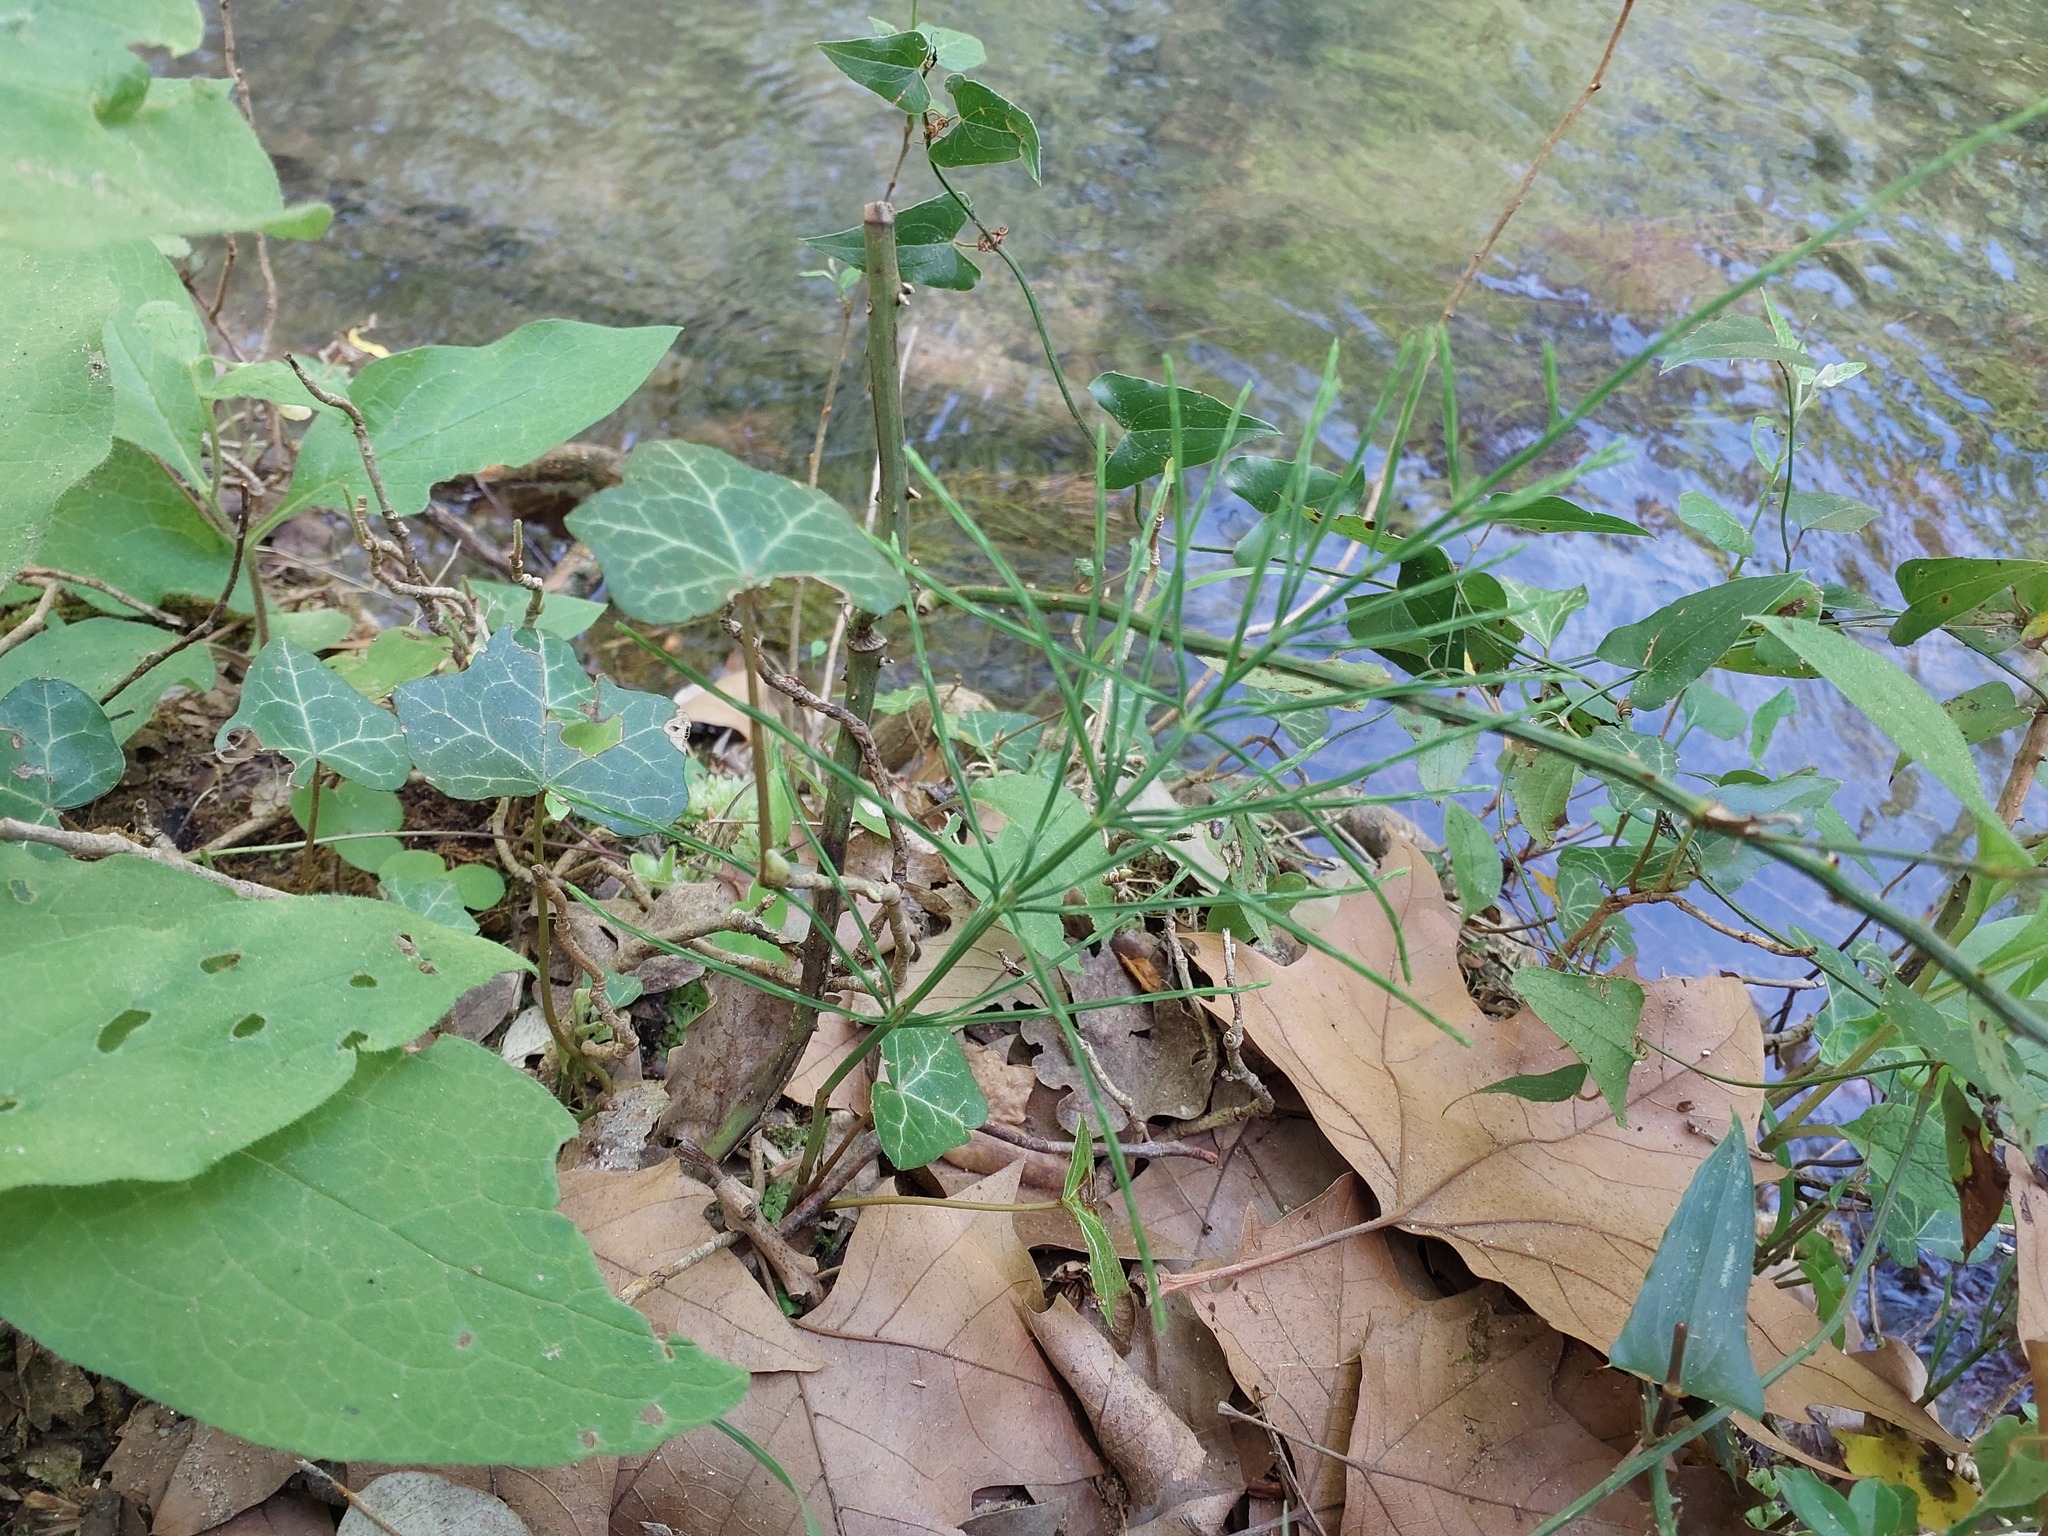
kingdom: Plantae
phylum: Tracheophyta
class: Polypodiopsida
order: Equisetales
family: Equisetaceae
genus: Equisetum
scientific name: Equisetum arvense
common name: Field horsetail
